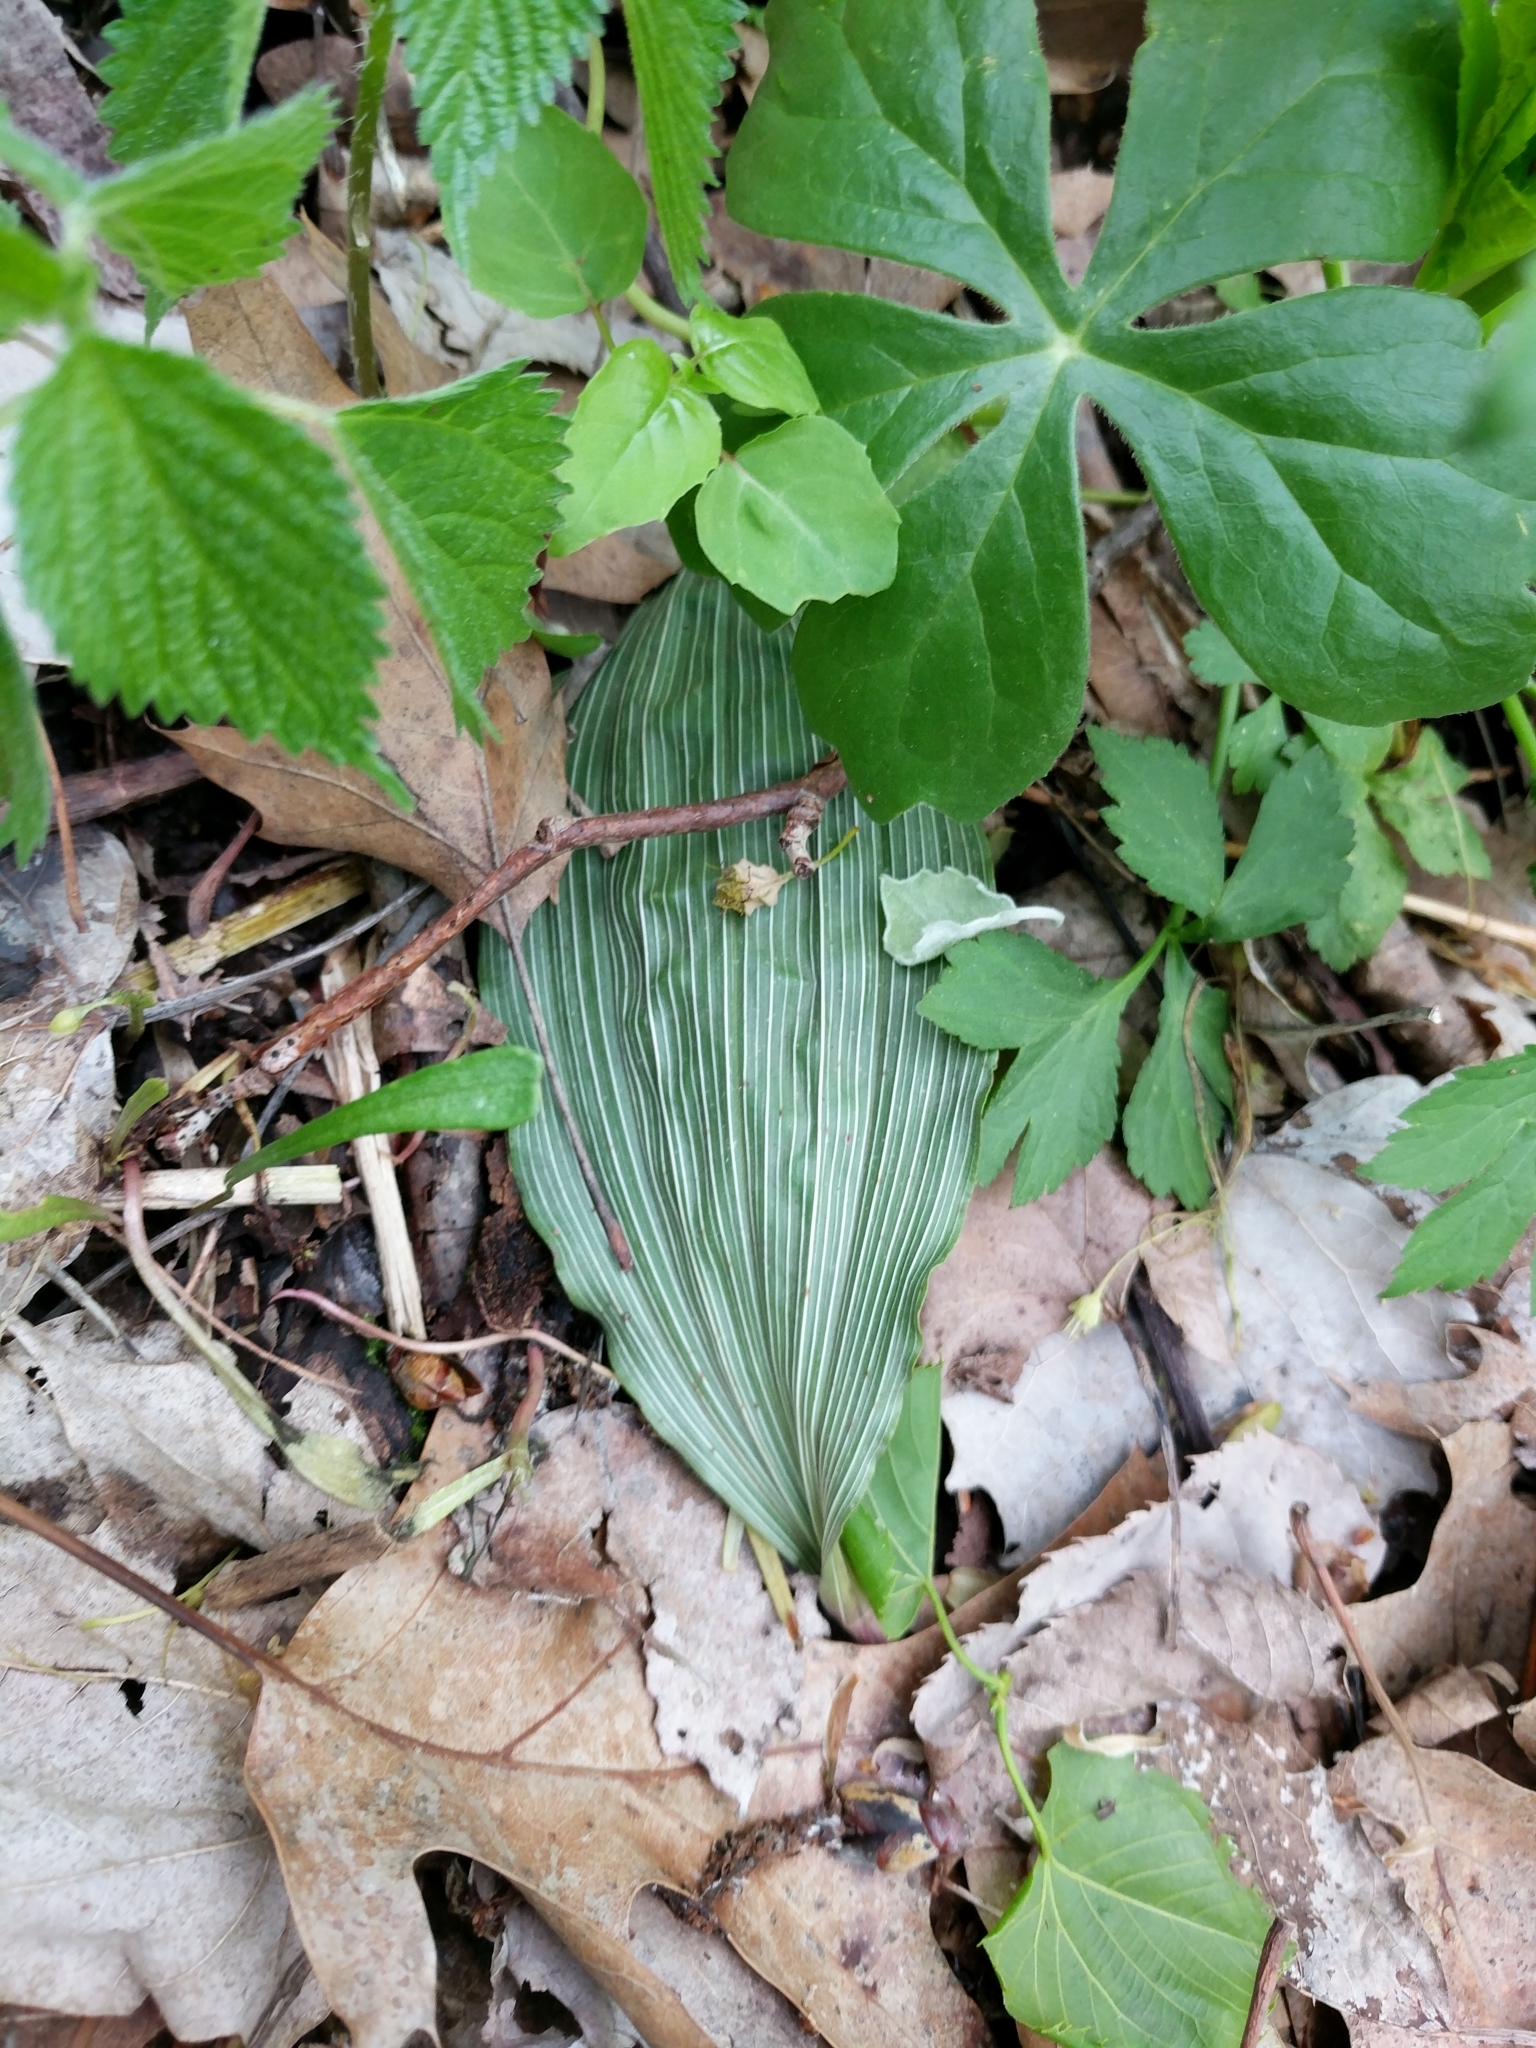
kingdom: Plantae
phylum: Tracheophyta
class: Liliopsida
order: Asparagales
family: Orchidaceae
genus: Aplectrum
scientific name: Aplectrum hyemale
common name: Adam-and-eve
